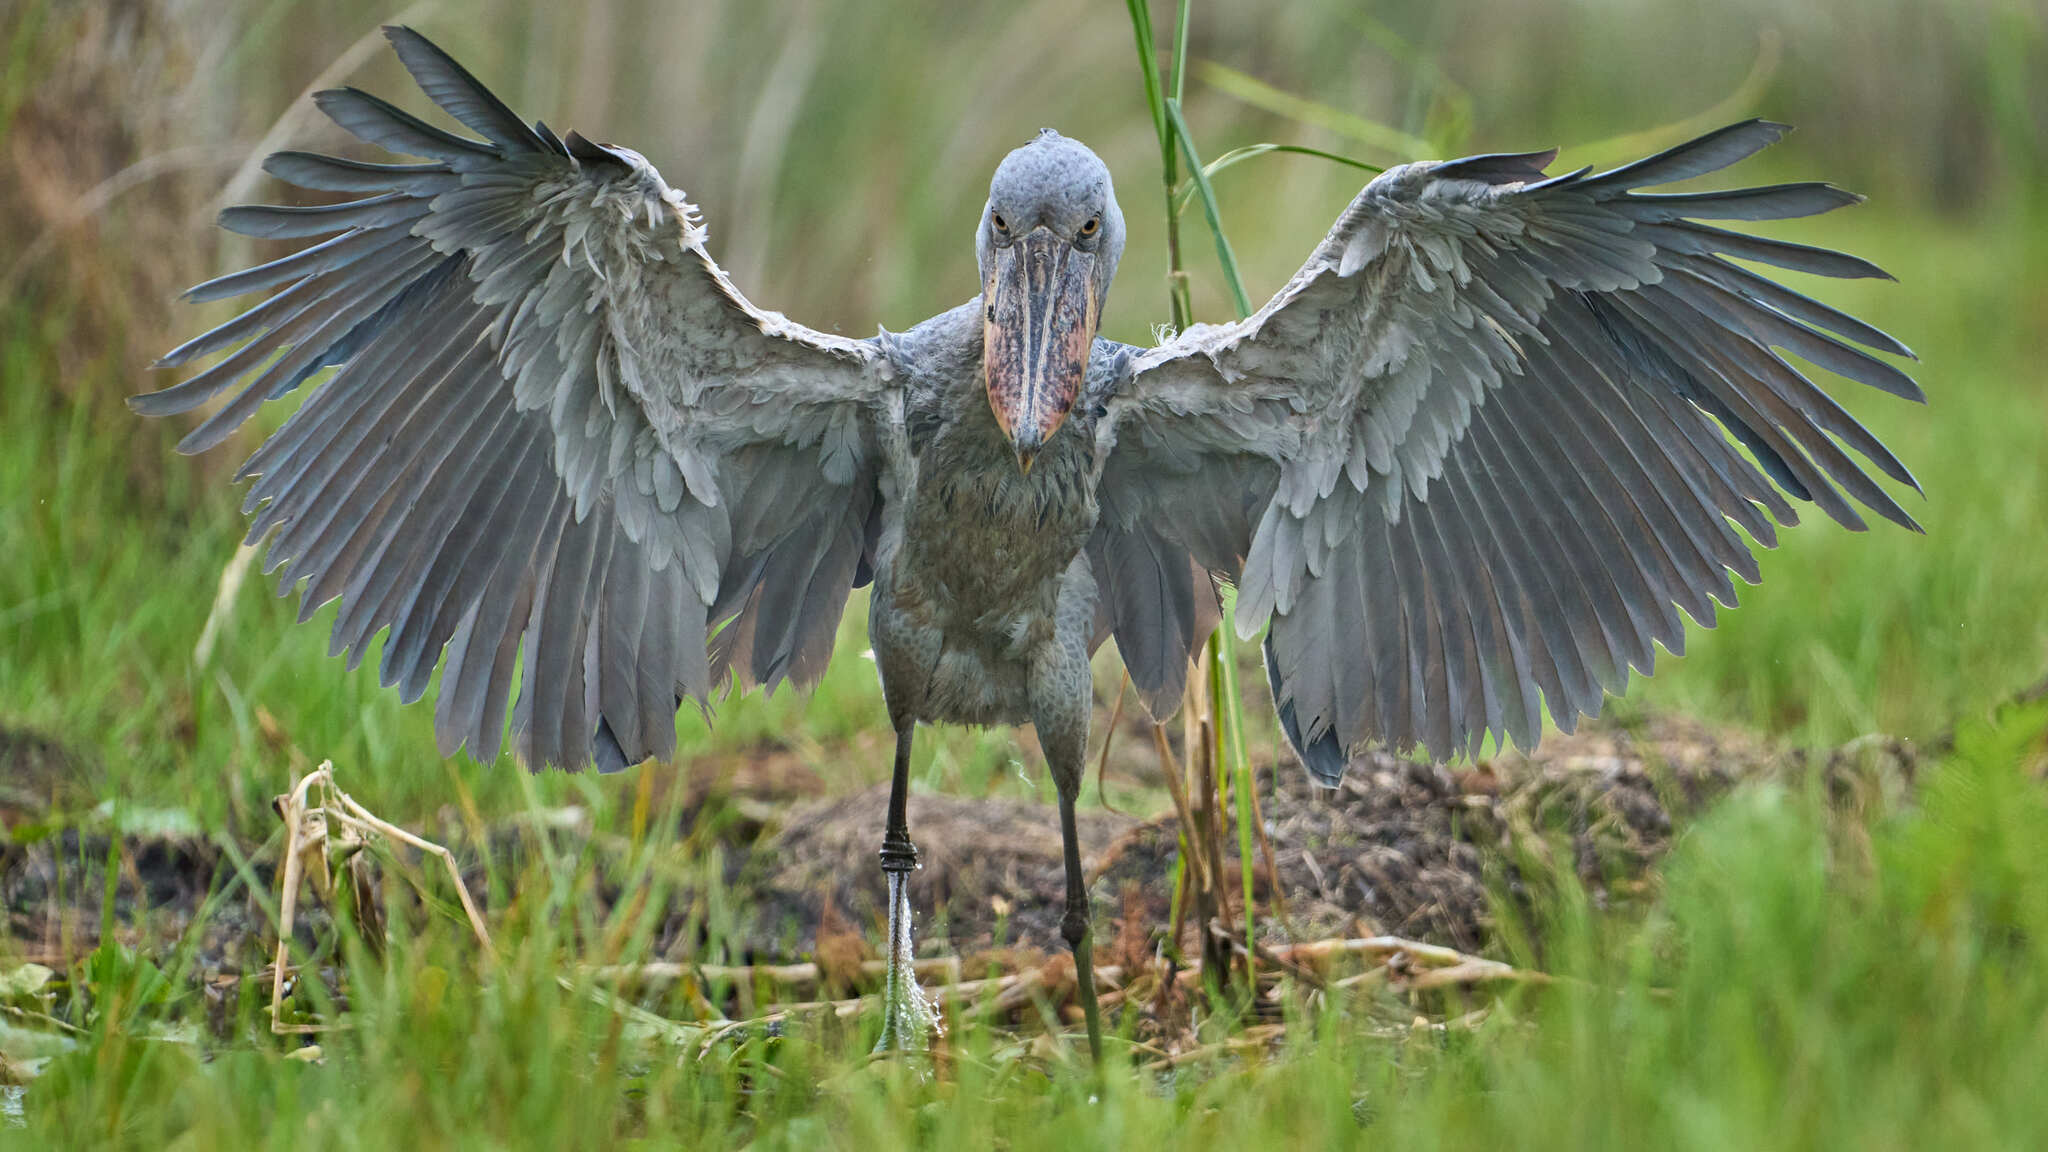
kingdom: Animalia
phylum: Chordata
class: Aves
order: Pelecaniformes
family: Balaenicipitidae
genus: Balaeniceps
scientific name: Balaeniceps rex
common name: Shoebill
